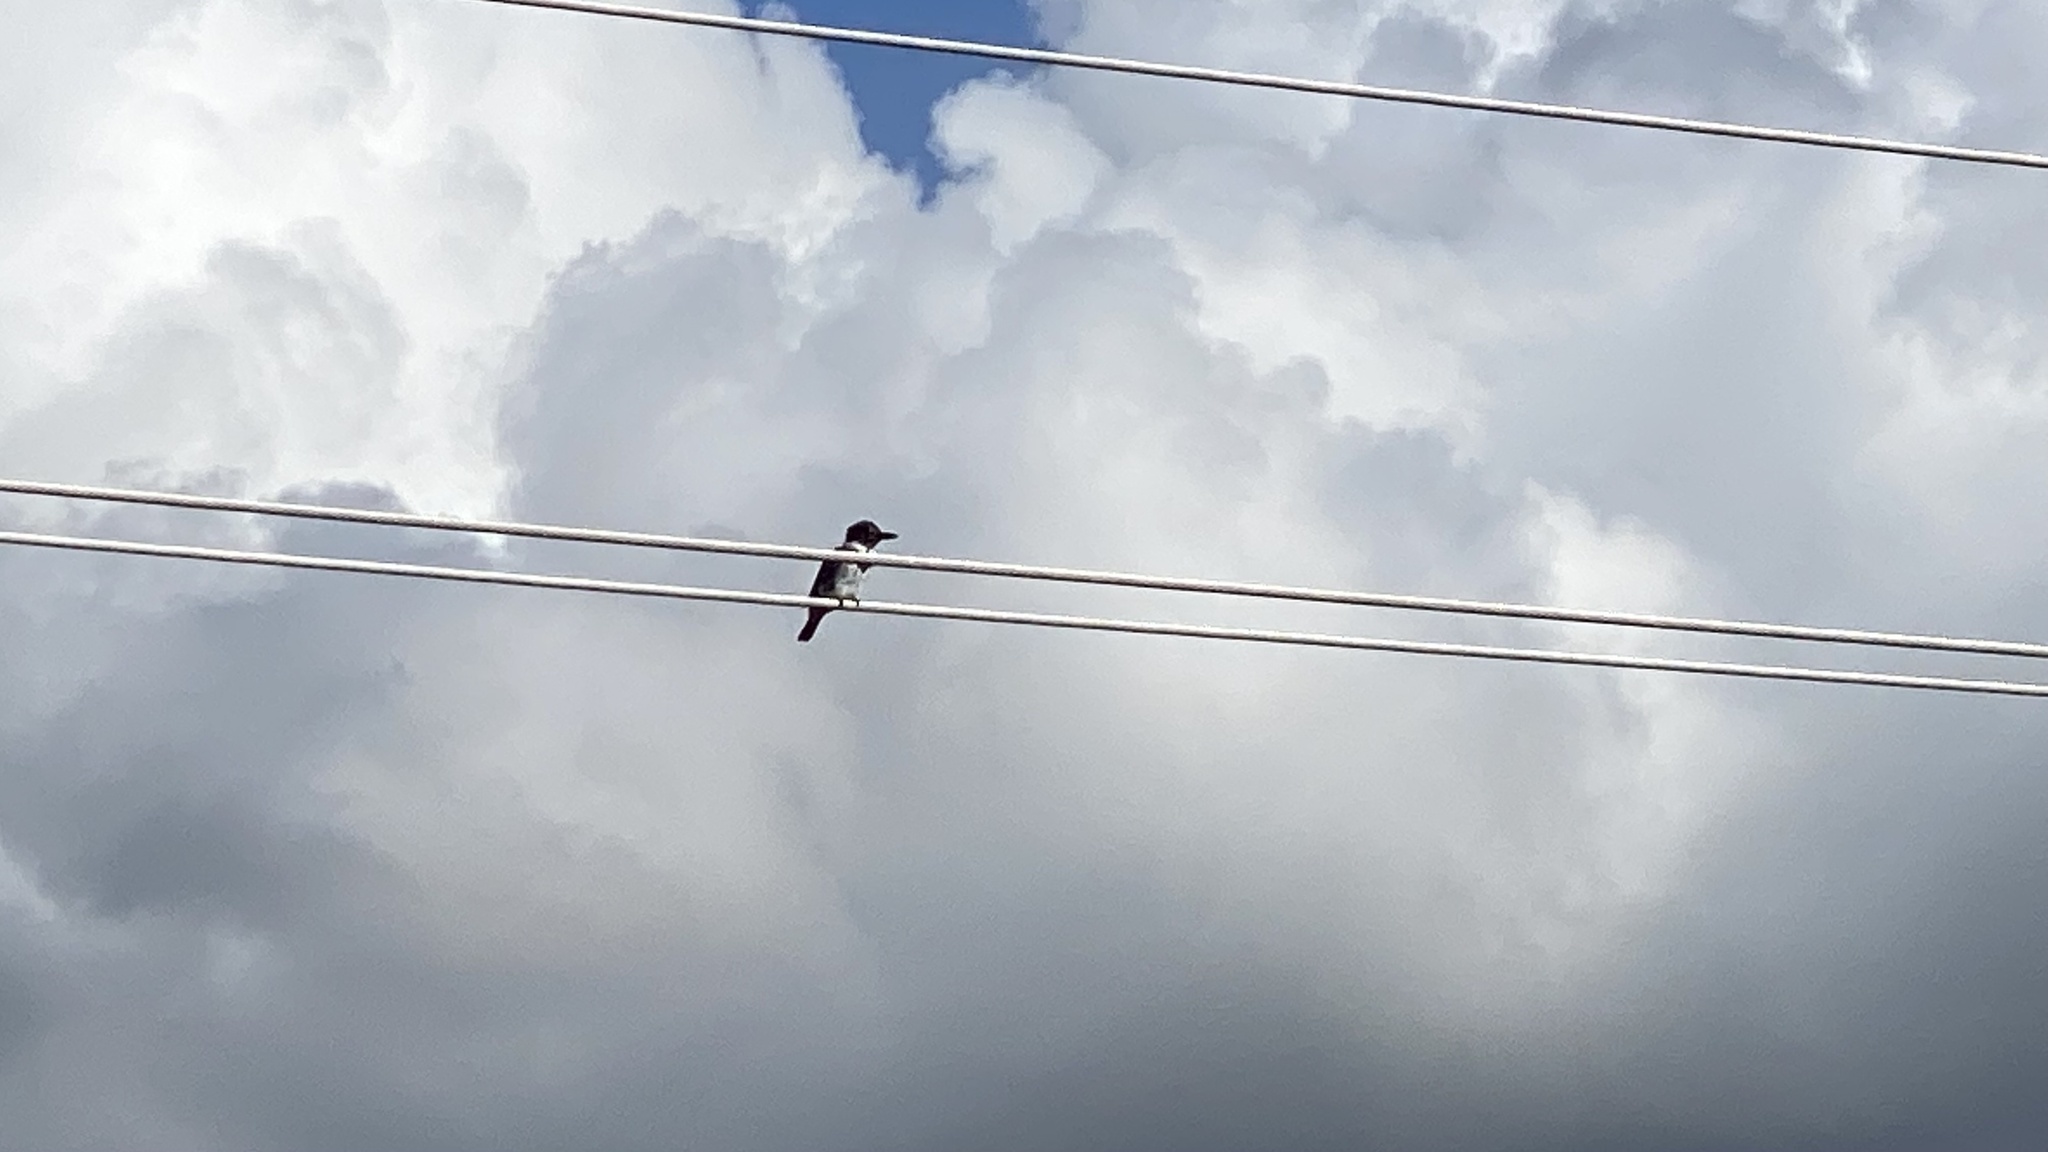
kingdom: Animalia
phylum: Chordata
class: Aves
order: Coraciiformes
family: Alcedinidae
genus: Megaceryle
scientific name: Megaceryle alcyon
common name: Belted kingfisher
